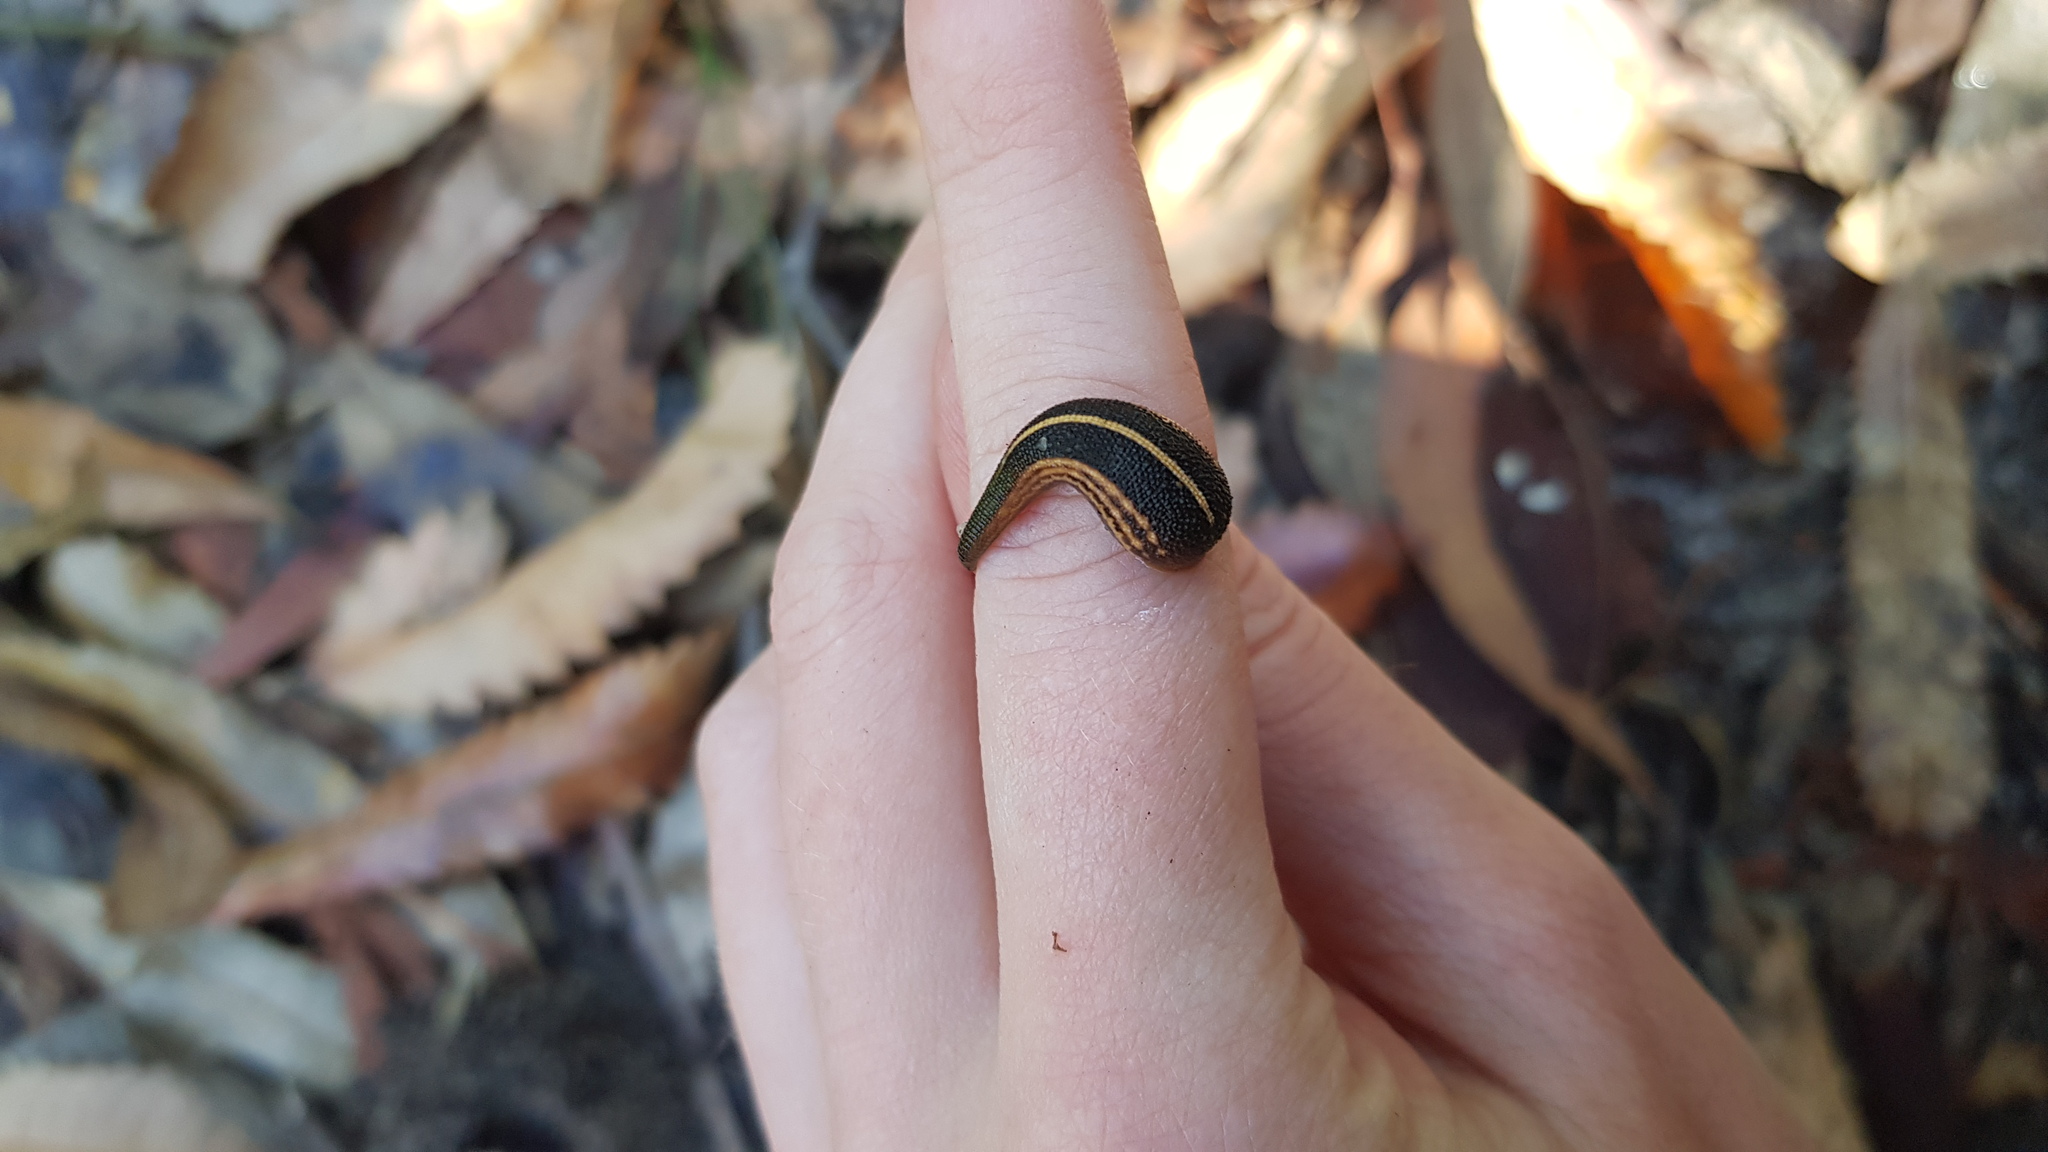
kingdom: Animalia
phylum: Annelida
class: Clitellata
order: Arhynchobdellida
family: Haemadipsidae
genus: Chtonobdella
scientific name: Chtonobdella limbata
